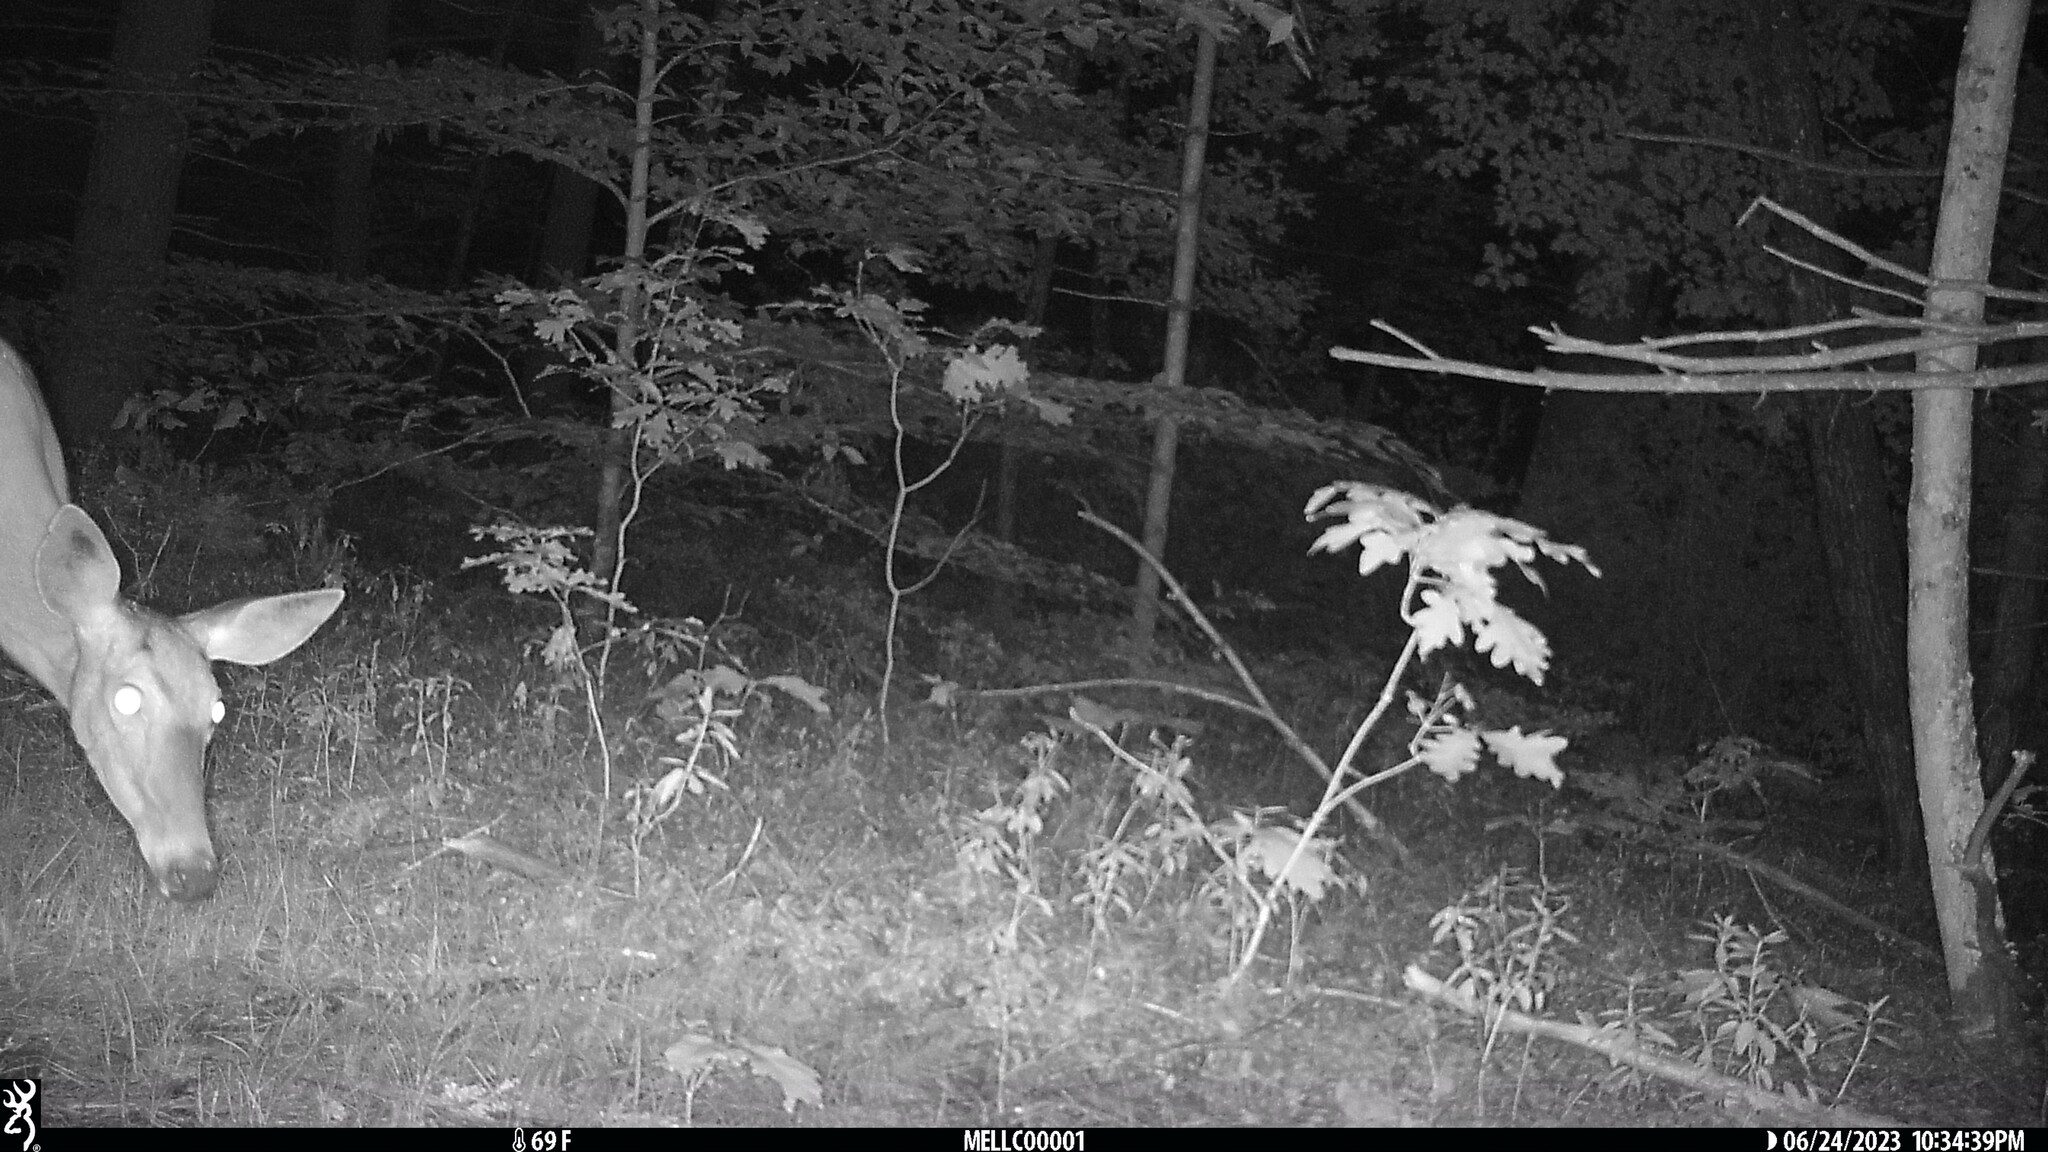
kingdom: Animalia
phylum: Chordata
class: Mammalia
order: Artiodactyla
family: Cervidae
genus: Odocoileus
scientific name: Odocoileus virginianus
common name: White-tailed deer
